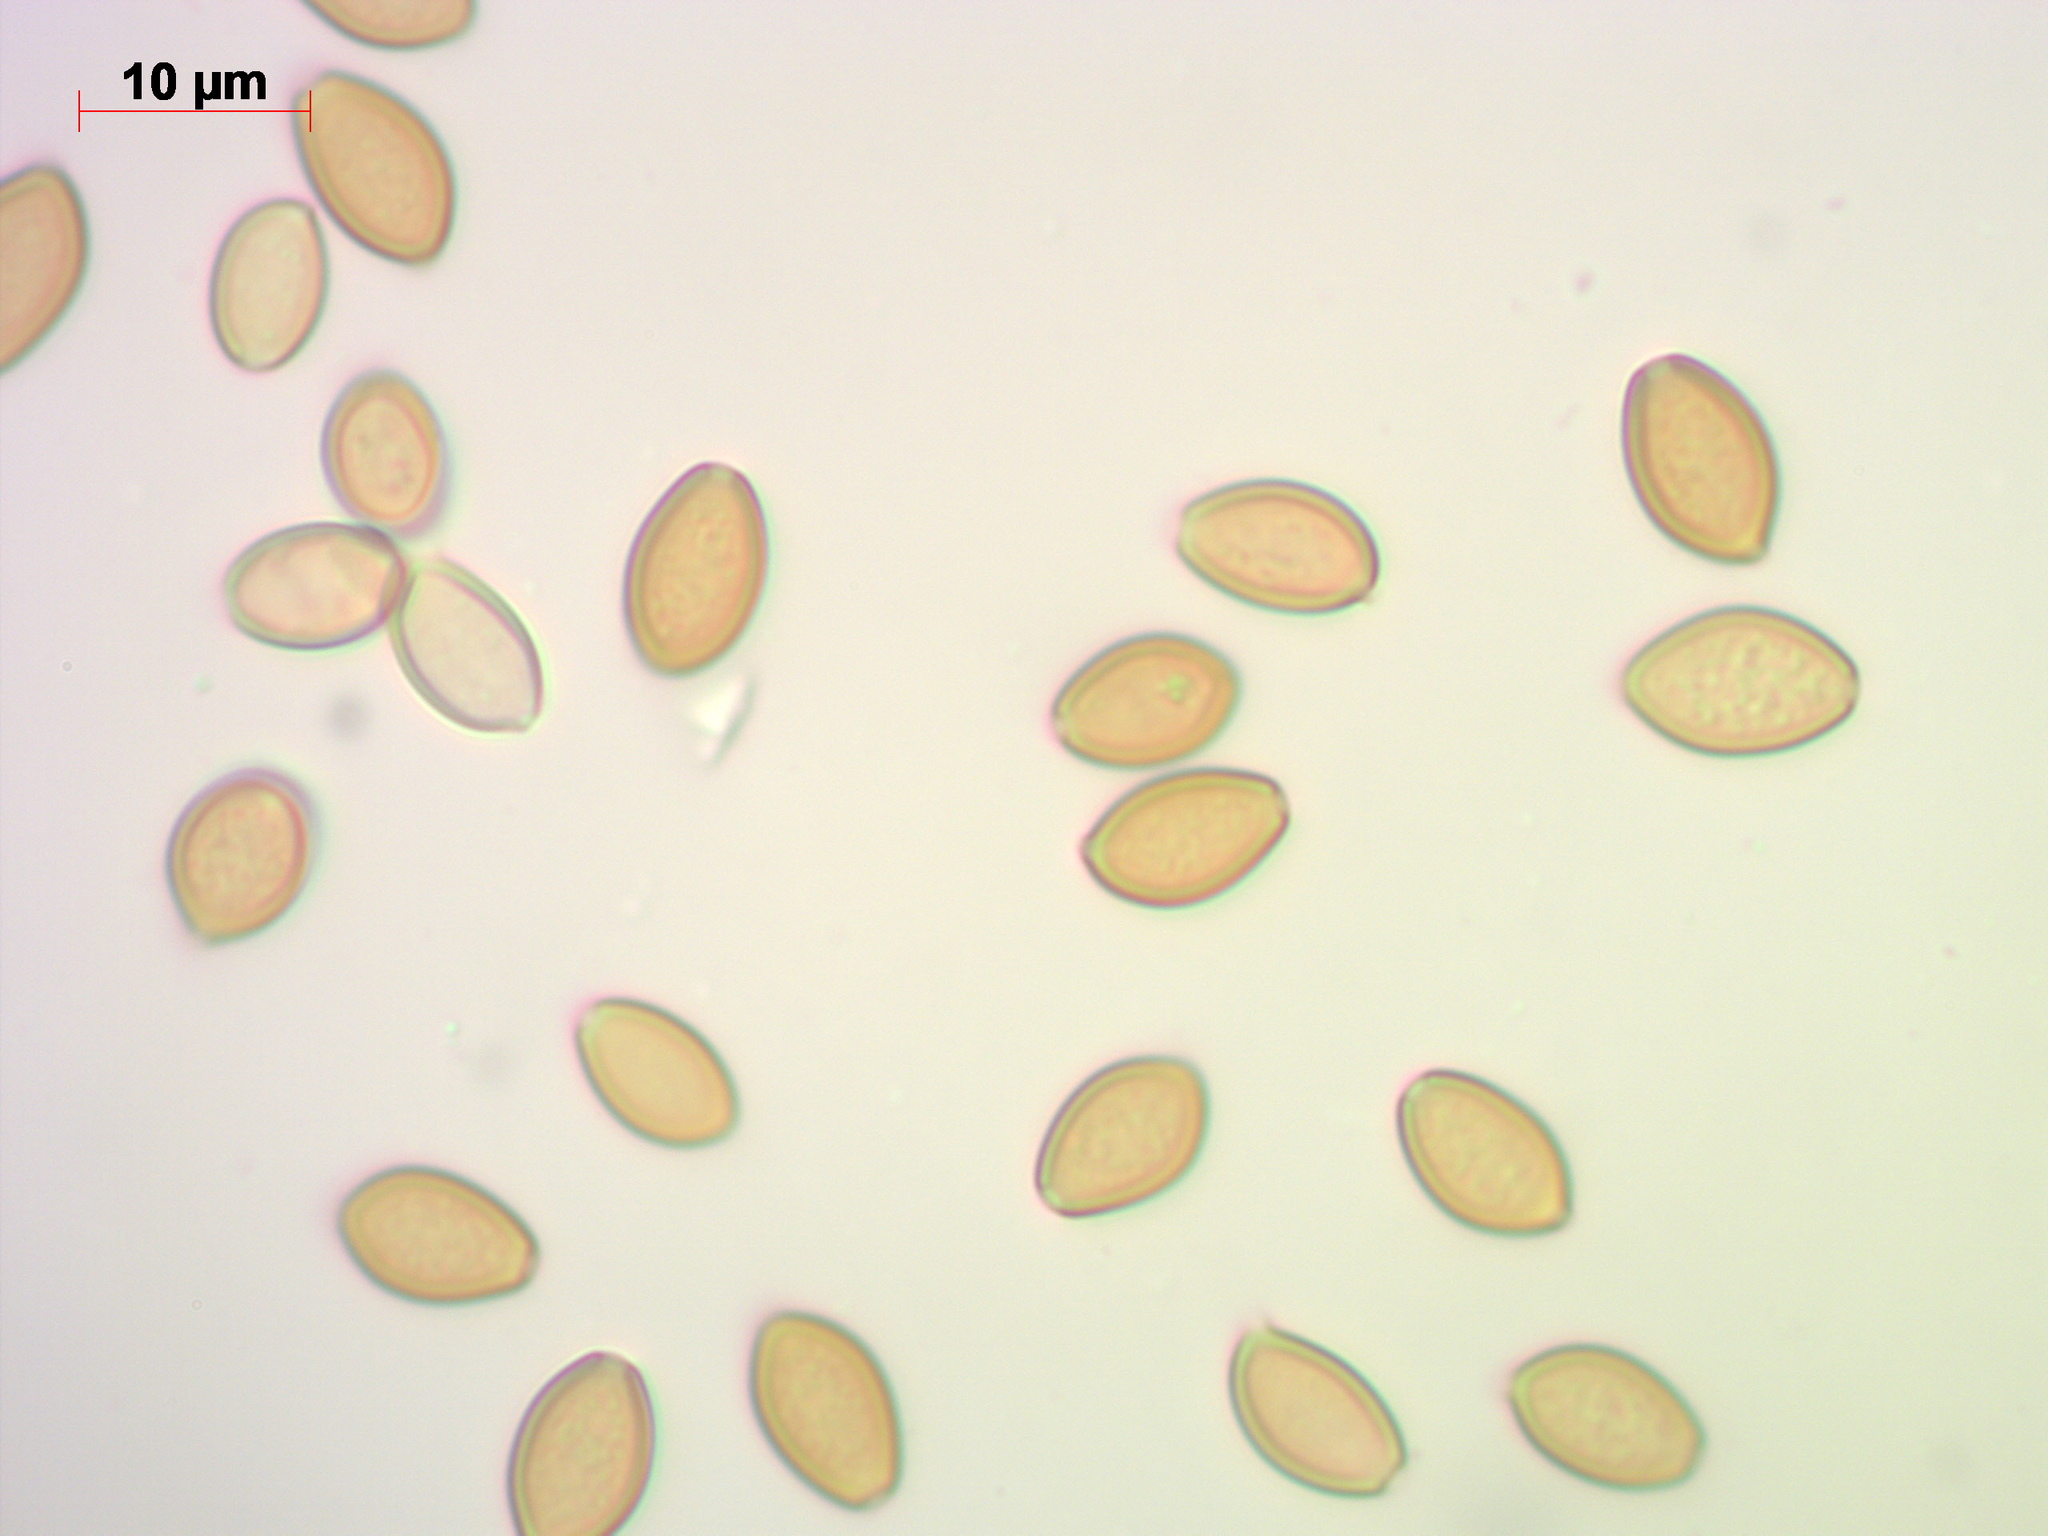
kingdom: Fungi
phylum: Basidiomycota
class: Agaricomycetes
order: Agaricales
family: Strophariaceae
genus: Agrocybe
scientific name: Agrocybe praecox
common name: Spring fieldcap
